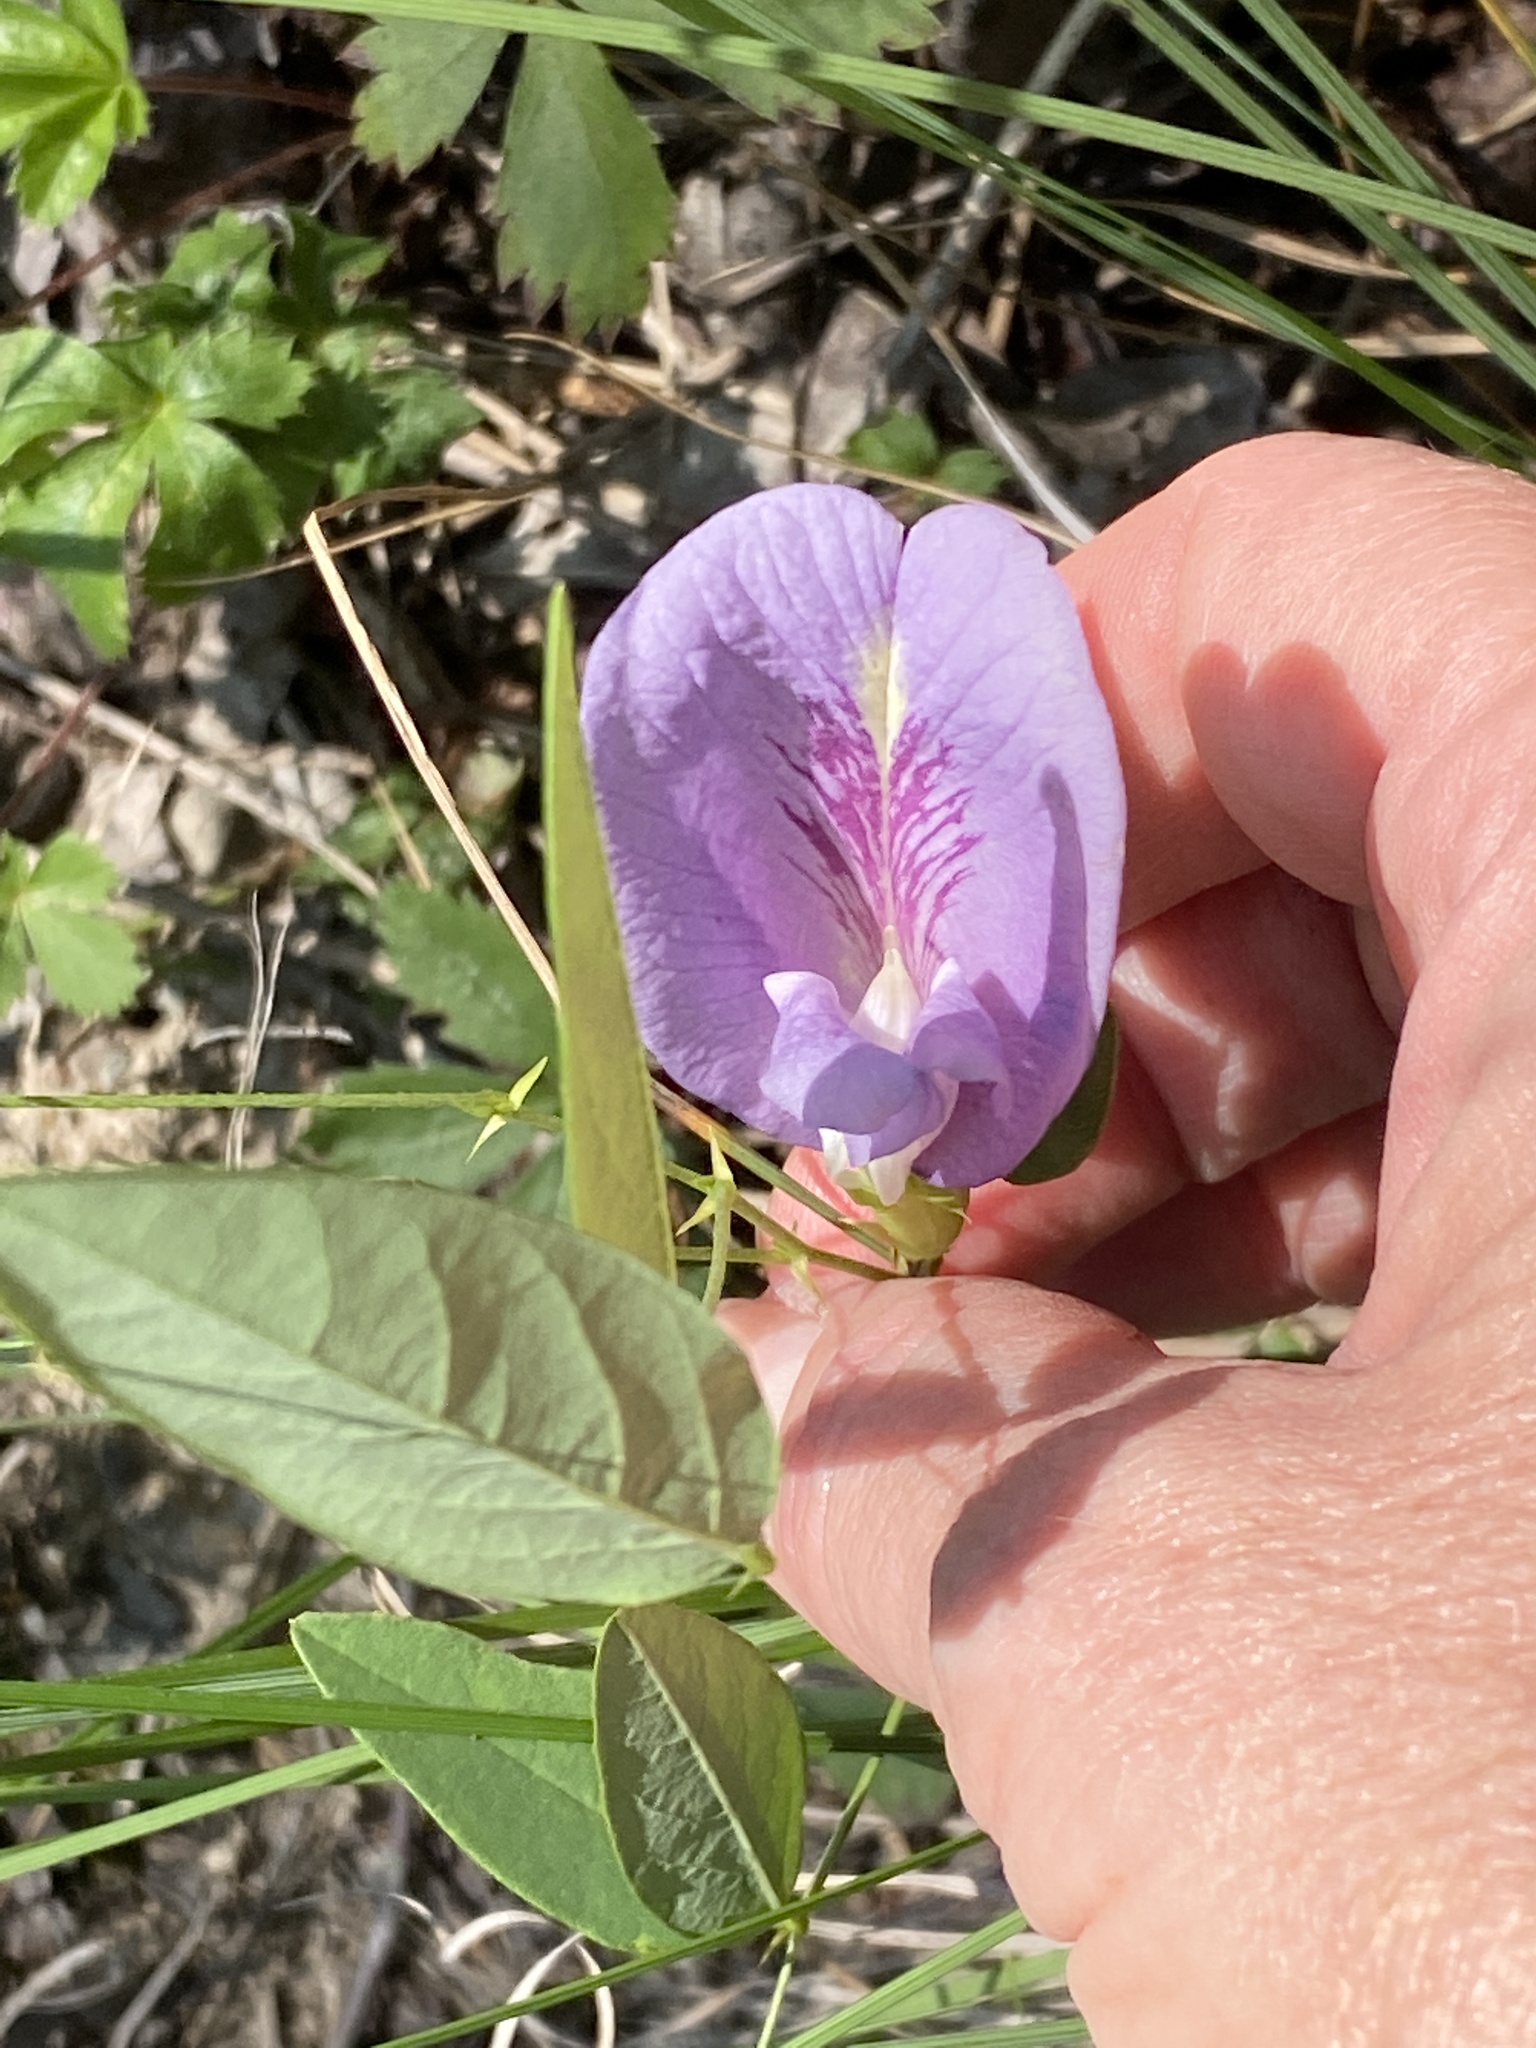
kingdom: Plantae
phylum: Tracheophyta
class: Magnoliopsida
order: Fabales
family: Fabaceae
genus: Clitoria
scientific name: Clitoria mariana
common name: Butterfly-pea
